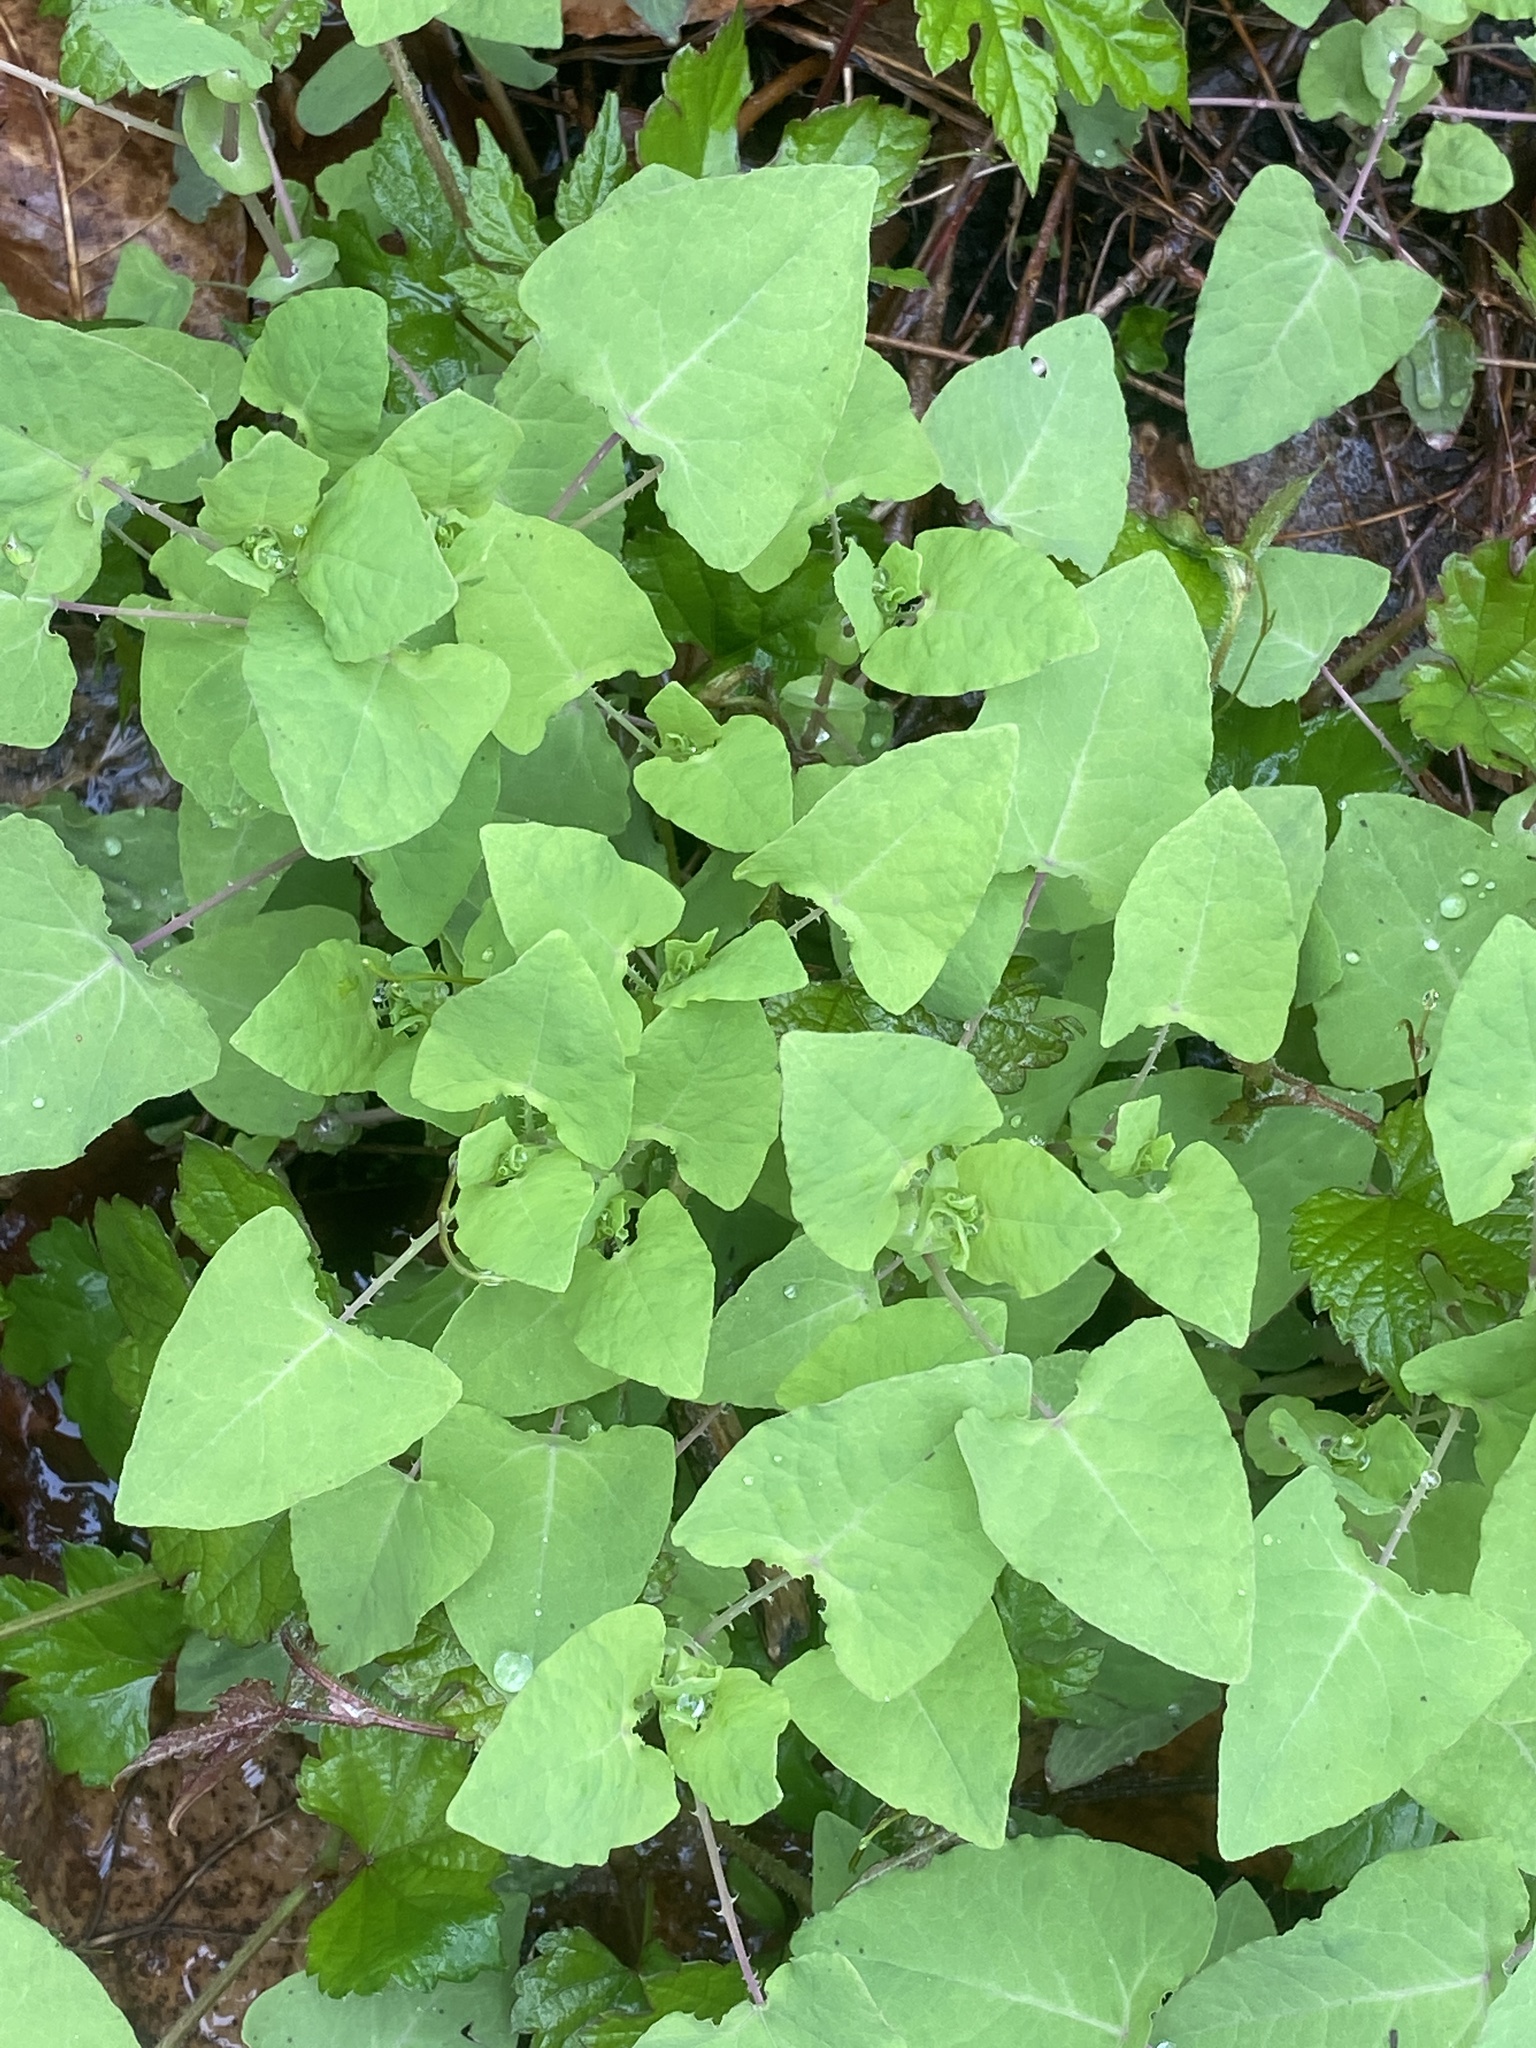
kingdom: Plantae
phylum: Tracheophyta
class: Magnoliopsida
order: Caryophyllales
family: Polygonaceae
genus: Persicaria
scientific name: Persicaria perfoliata
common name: Asiatic tearthumb
